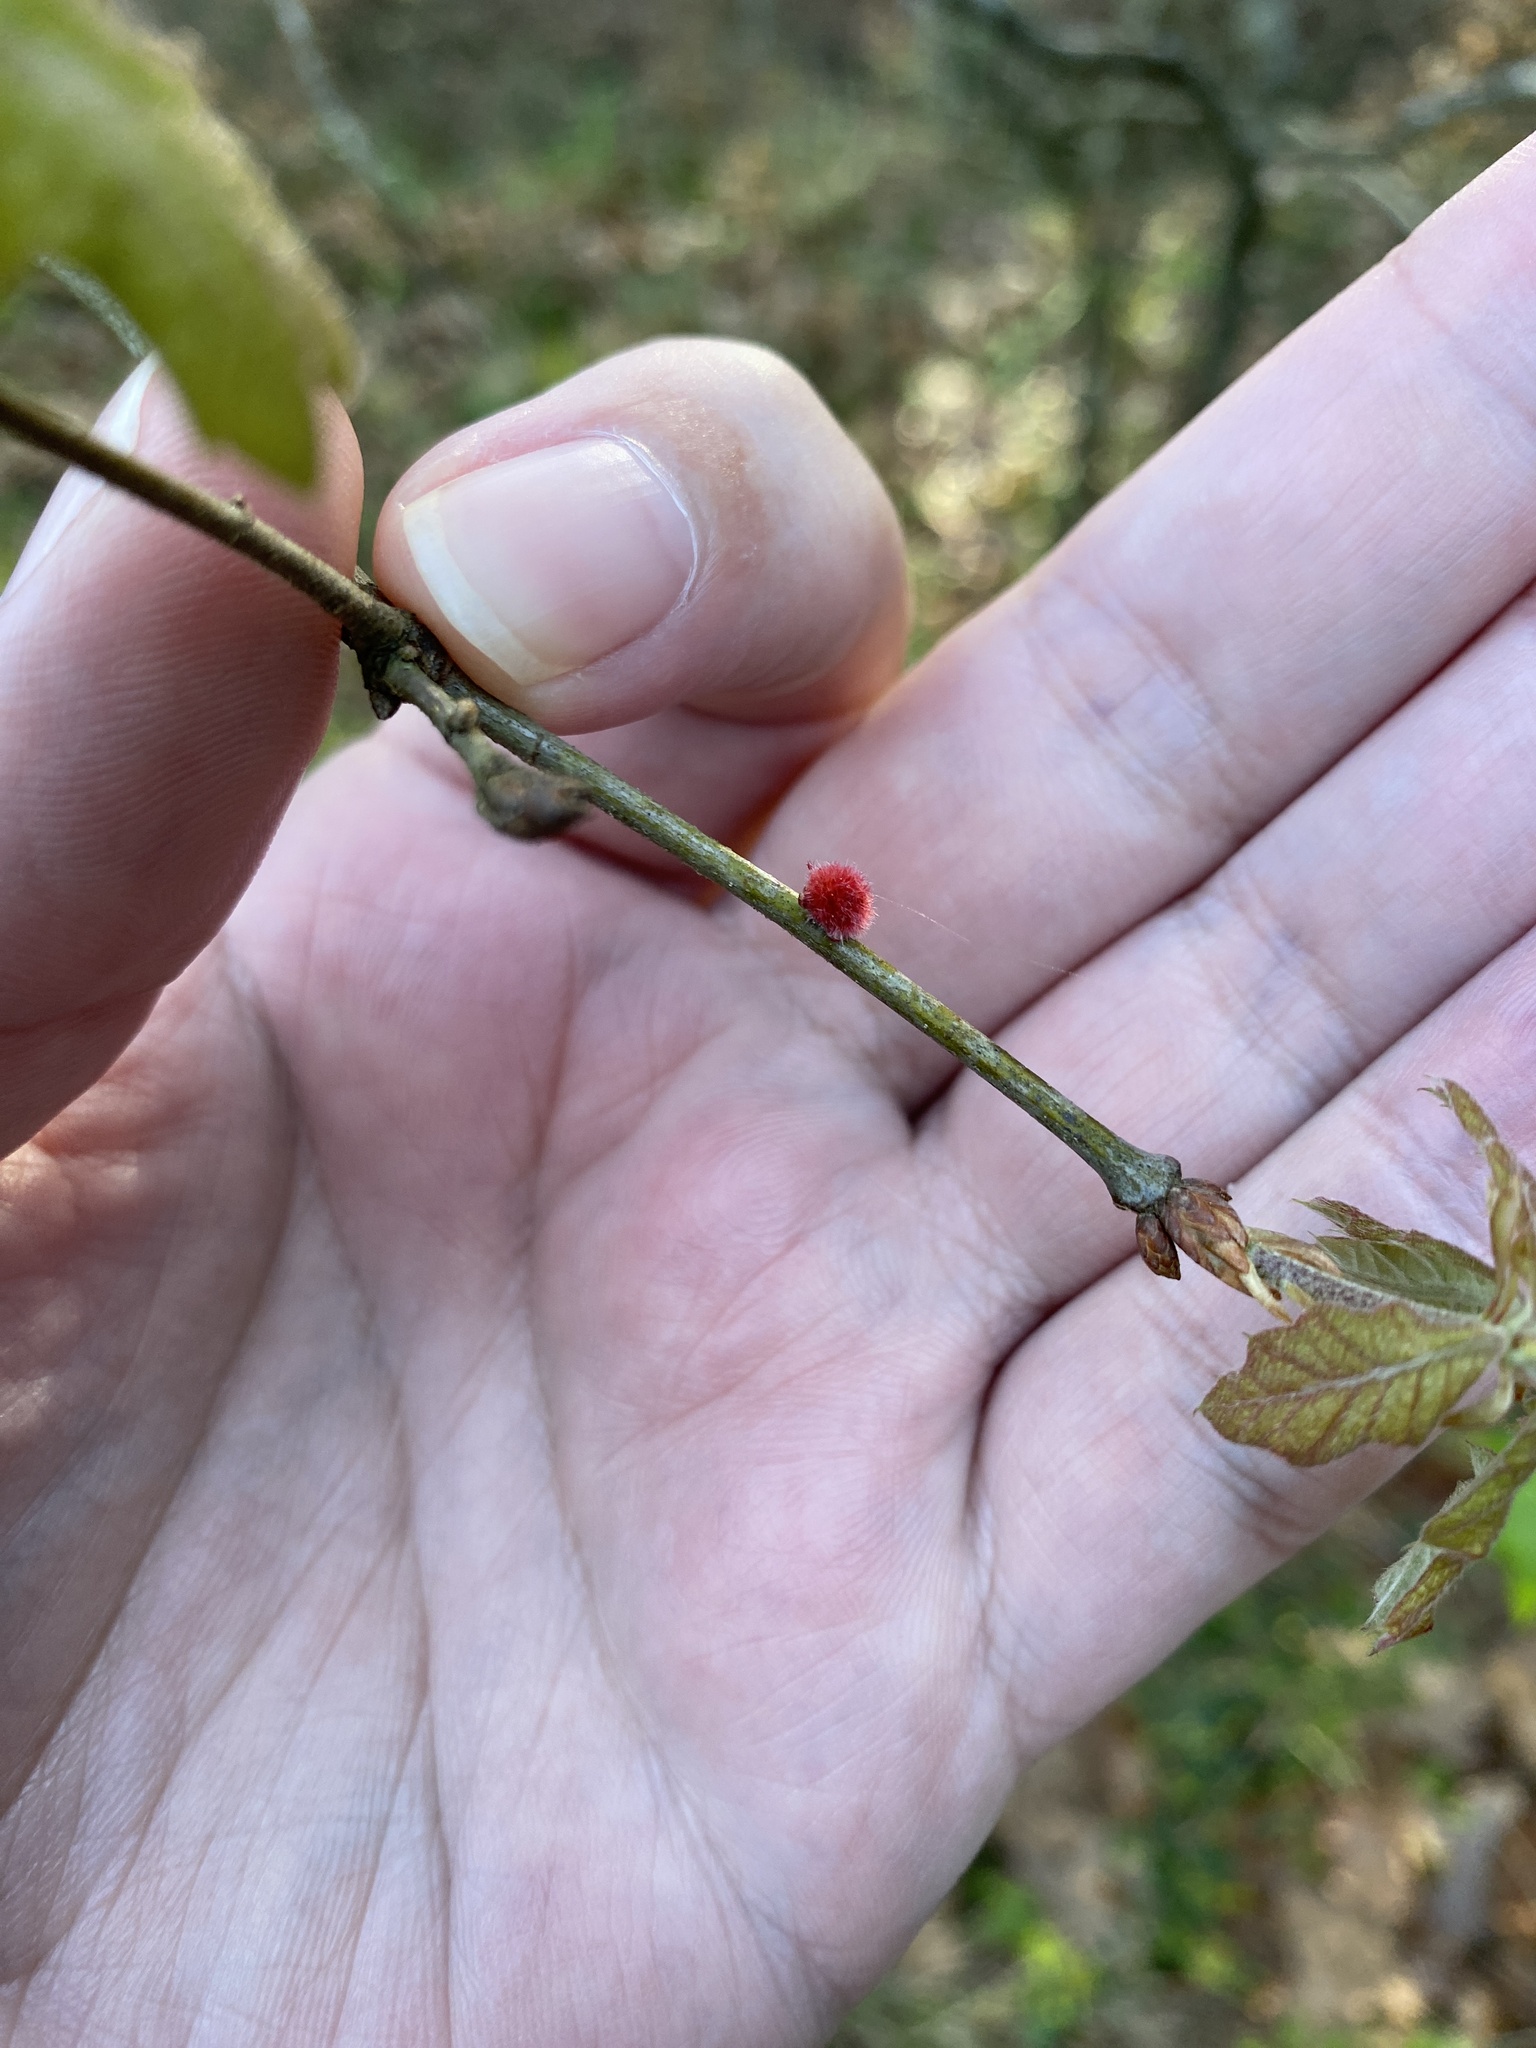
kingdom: Animalia
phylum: Arthropoda
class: Insecta
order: Hymenoptera
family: Cynipidae
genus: Dryocosmus
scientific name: Dryocosmus
